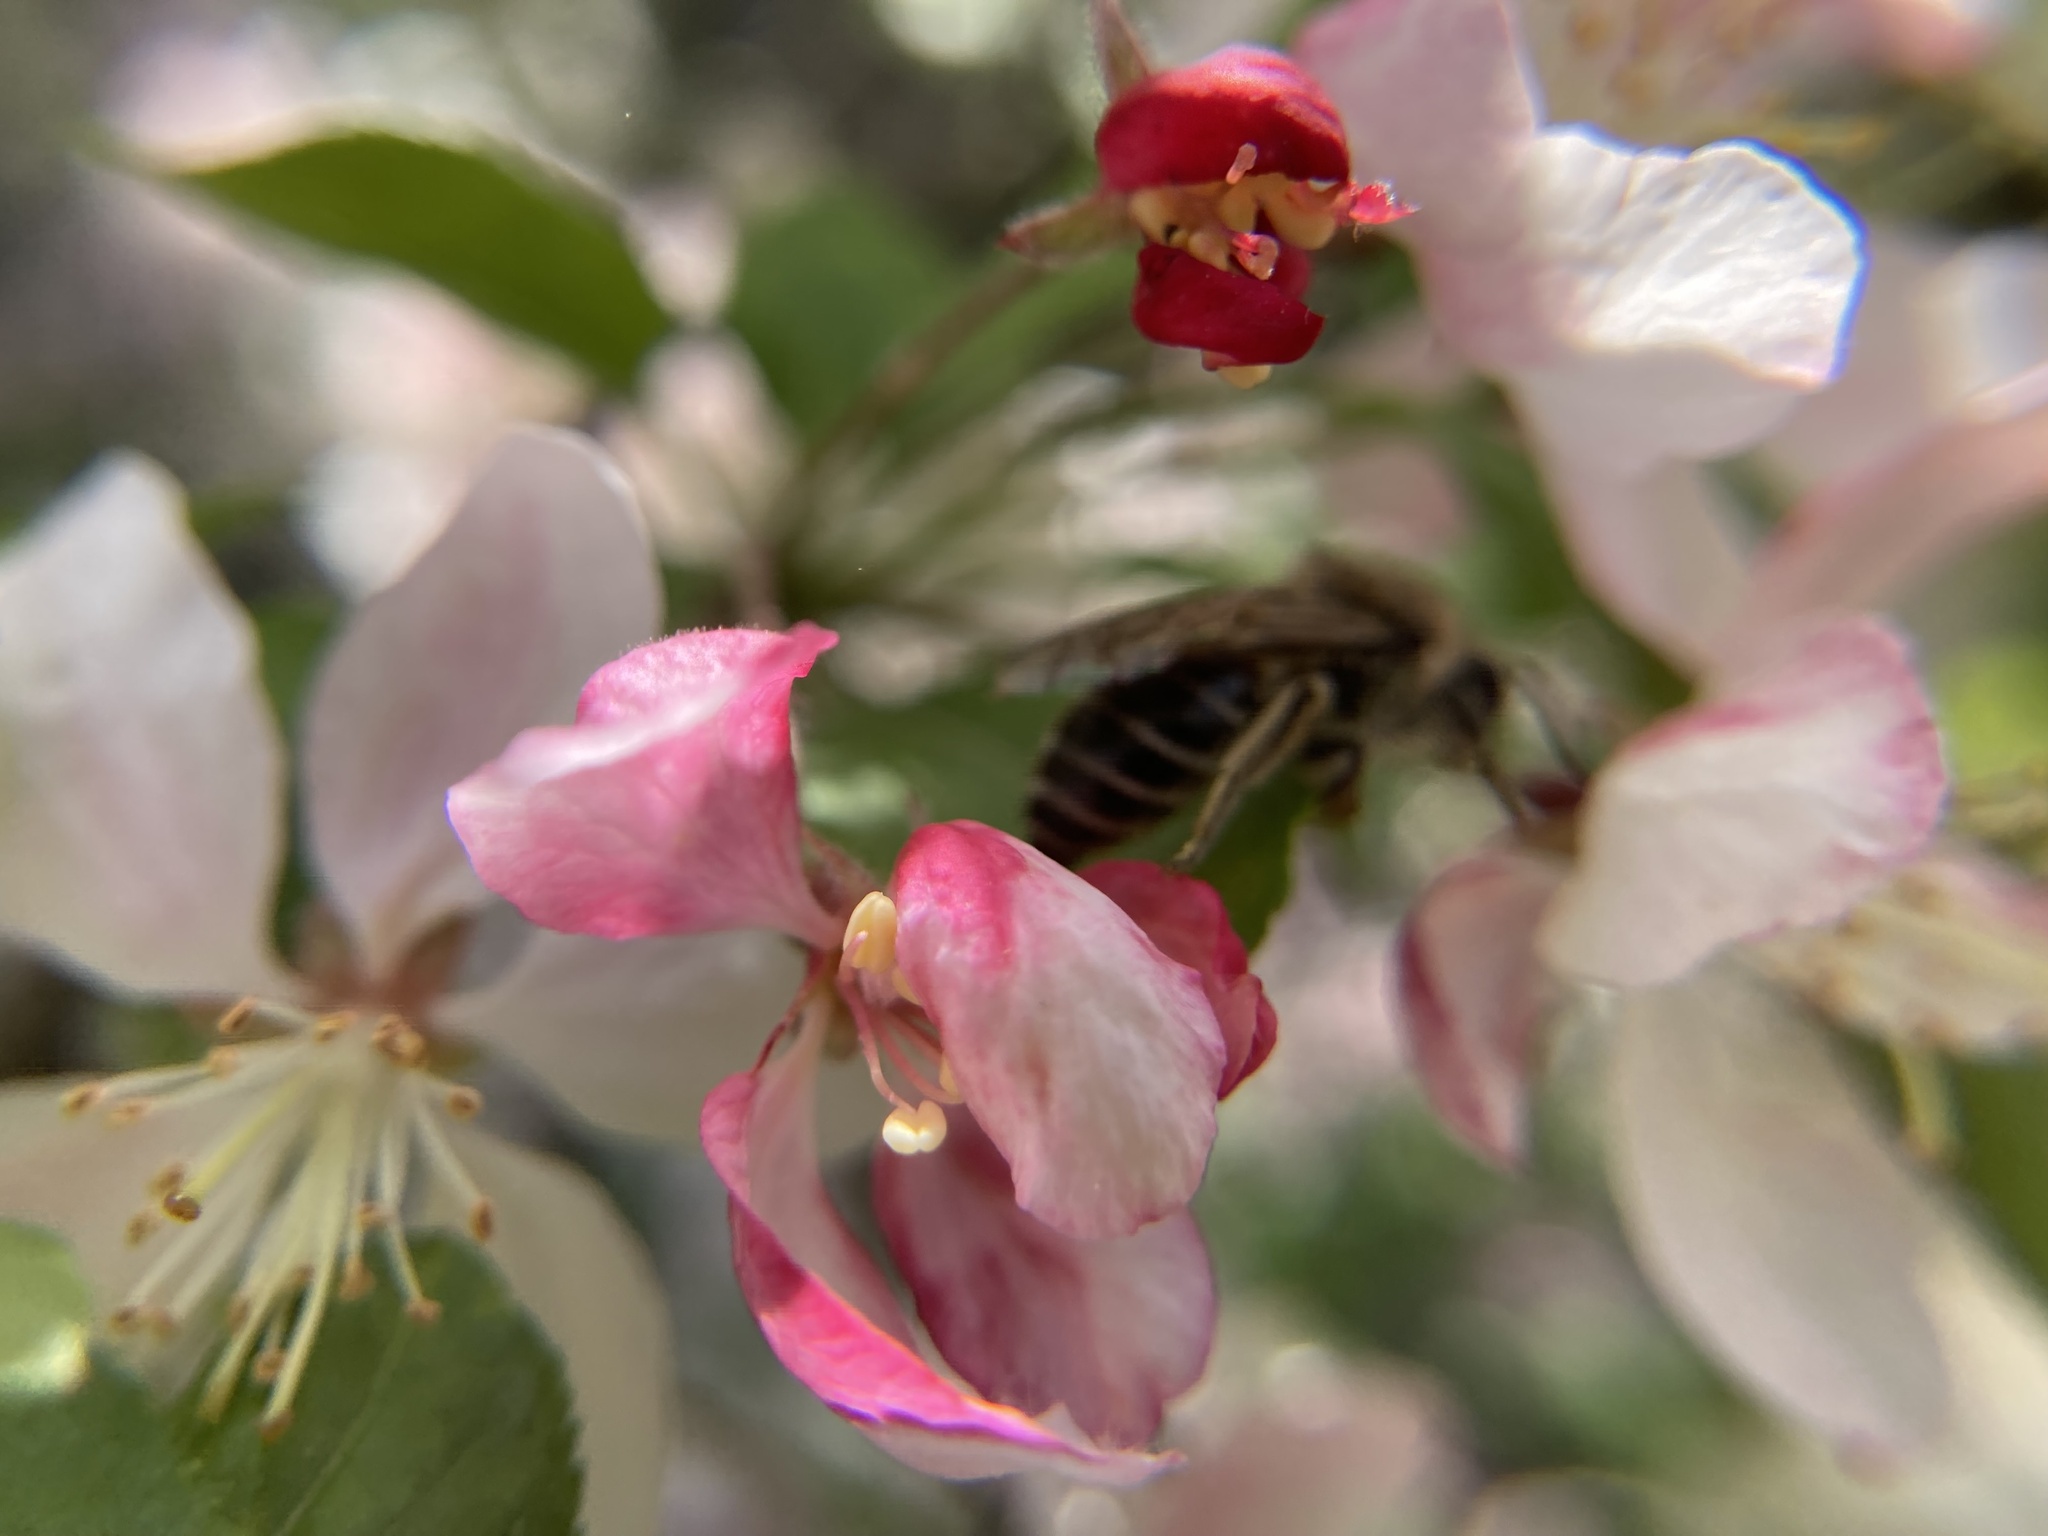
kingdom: Animalia
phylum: Arthropoda
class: Insecta
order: Hymenoptera
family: Colletidae
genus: Colletes
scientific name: Colletes inaequalis
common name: Unequal cellophane bee
